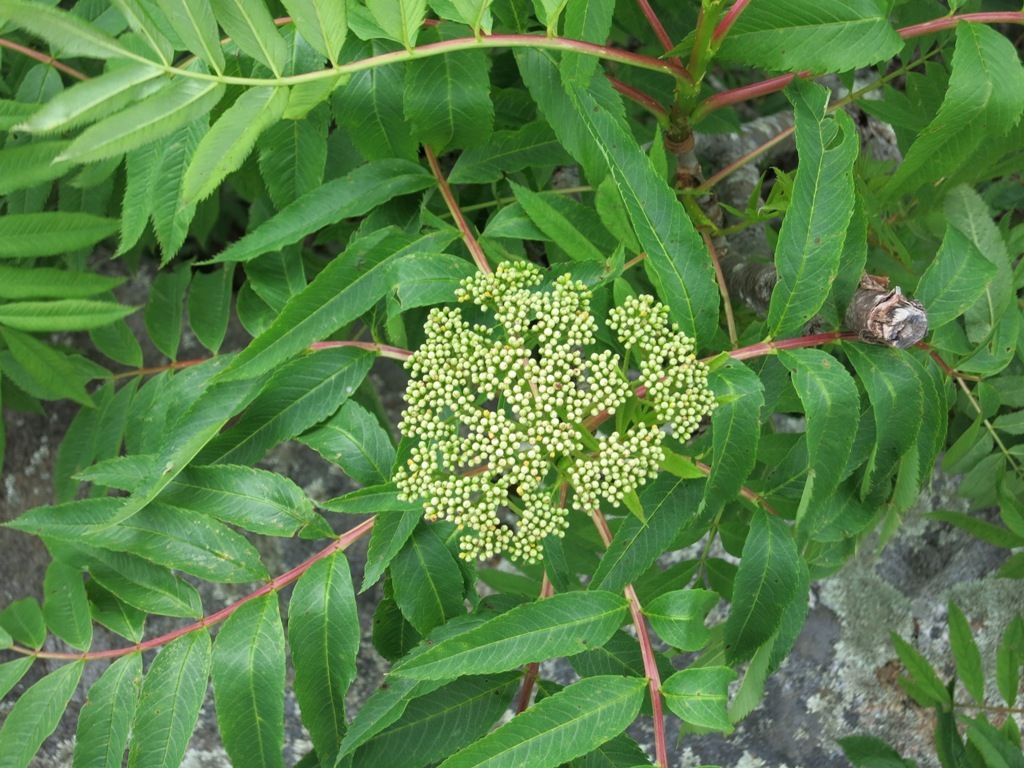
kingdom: Plantae
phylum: Tracheophyta
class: Magnoliopsida
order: Rosales
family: Rosaceae
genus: Sorbus
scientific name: Sorbus americana
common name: American mountain-ash
